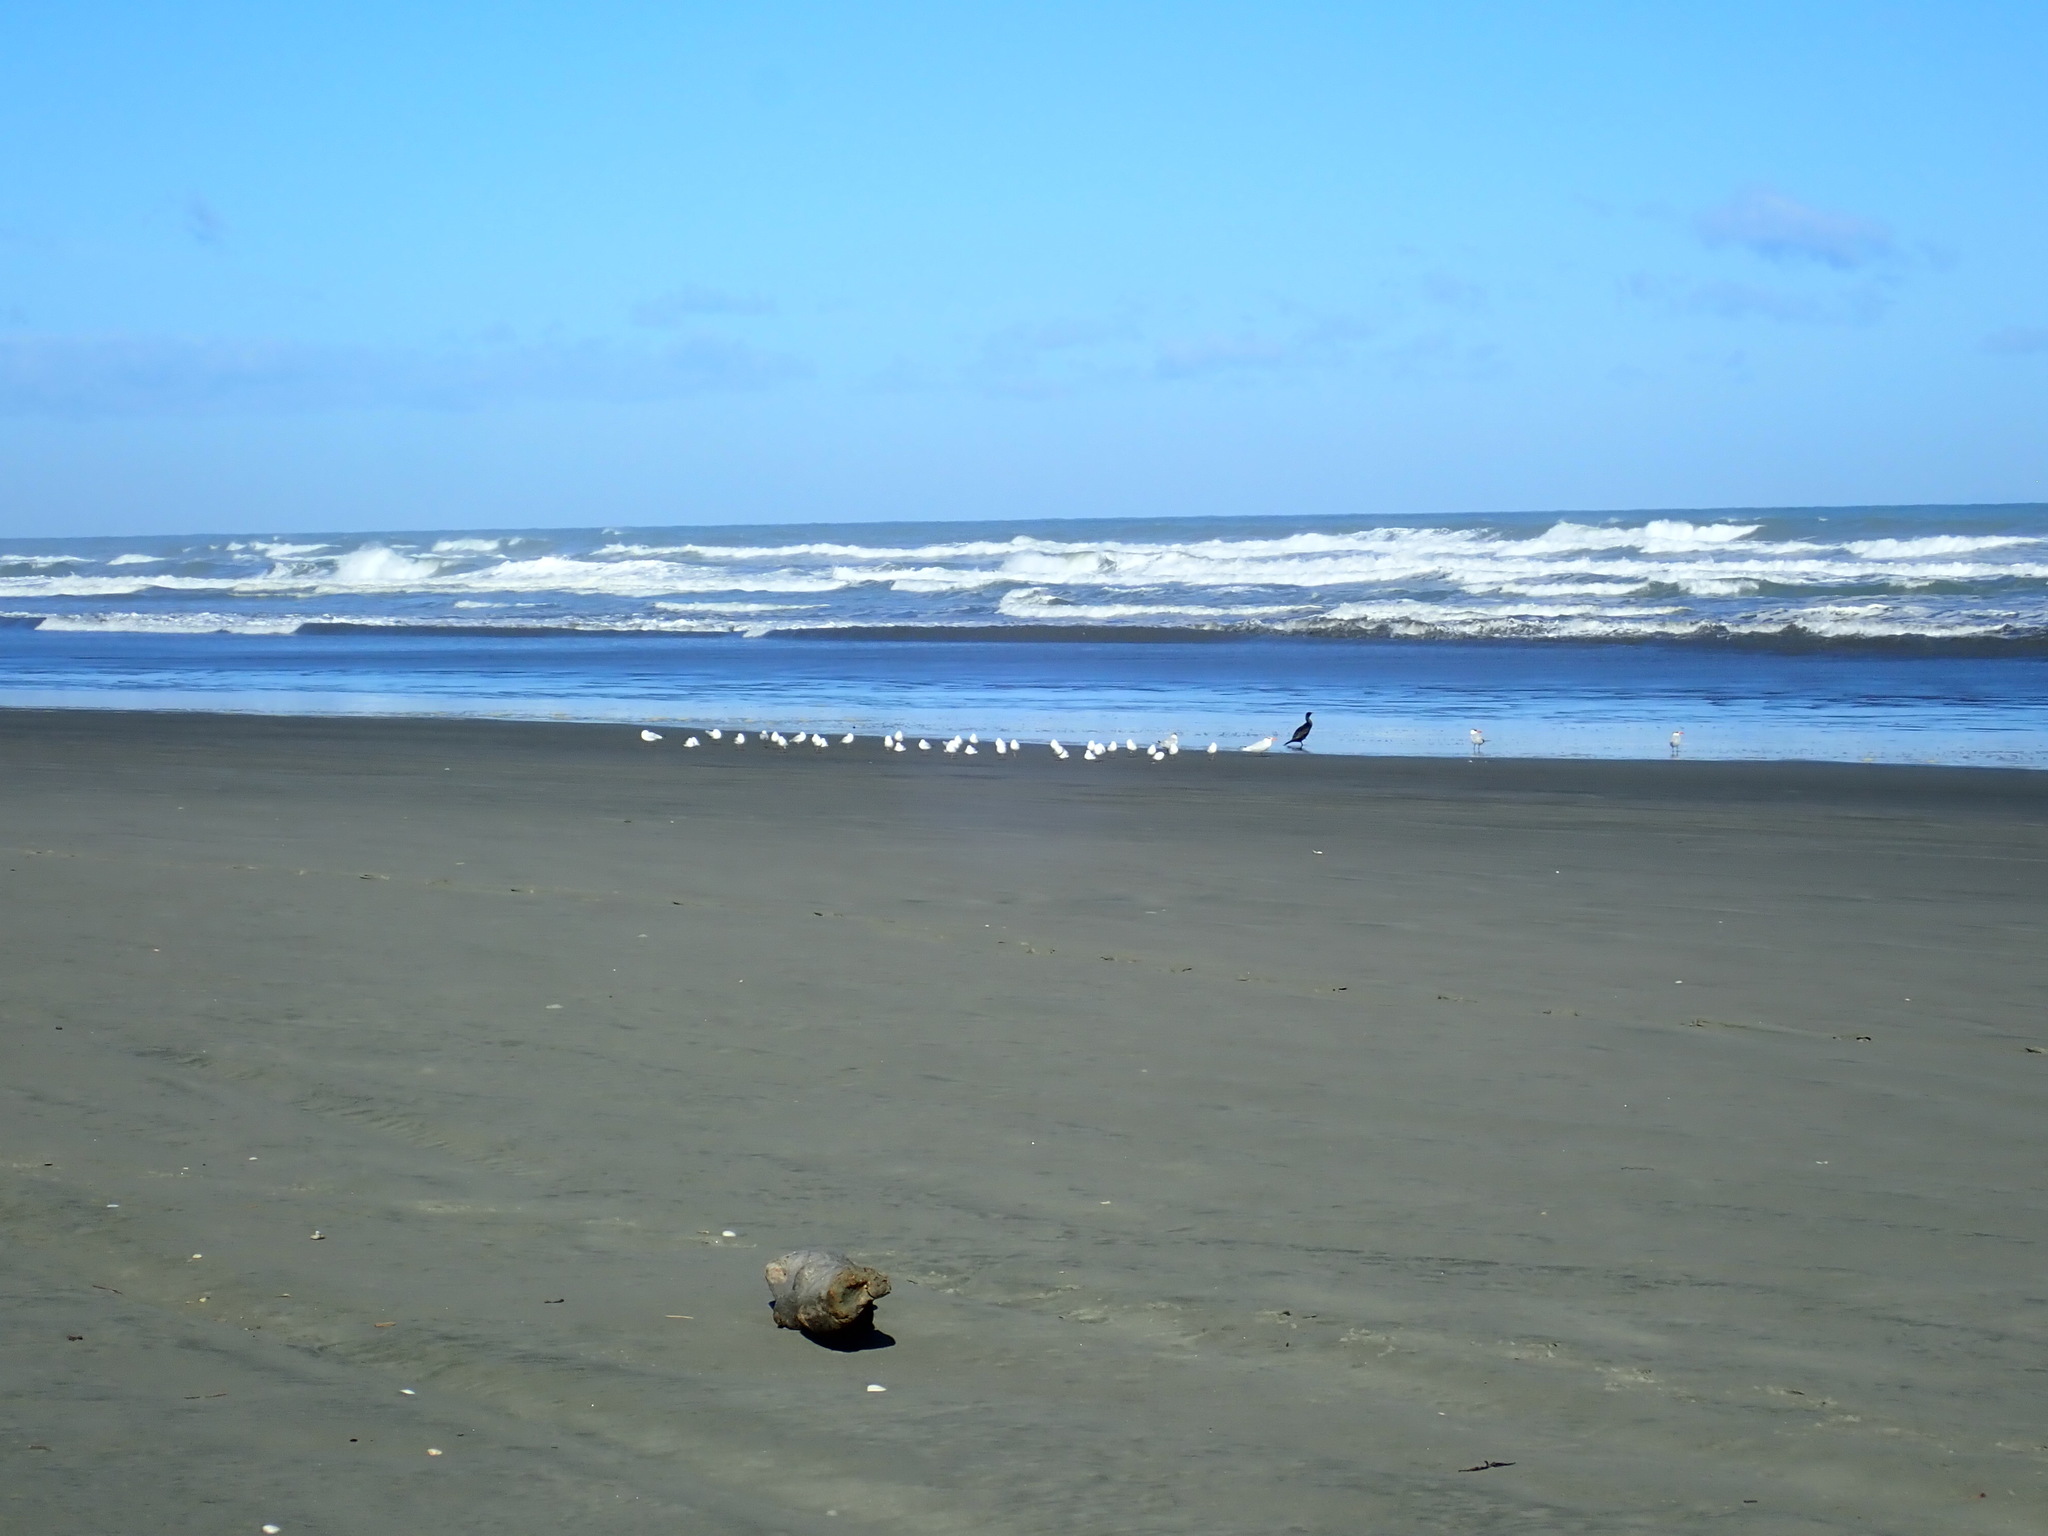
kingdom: Animalia
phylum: Chordata
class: Aves
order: Charadriiformes
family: Laridae
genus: Hydroprogne
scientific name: Hydroprogne caspia
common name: Caspian tern
